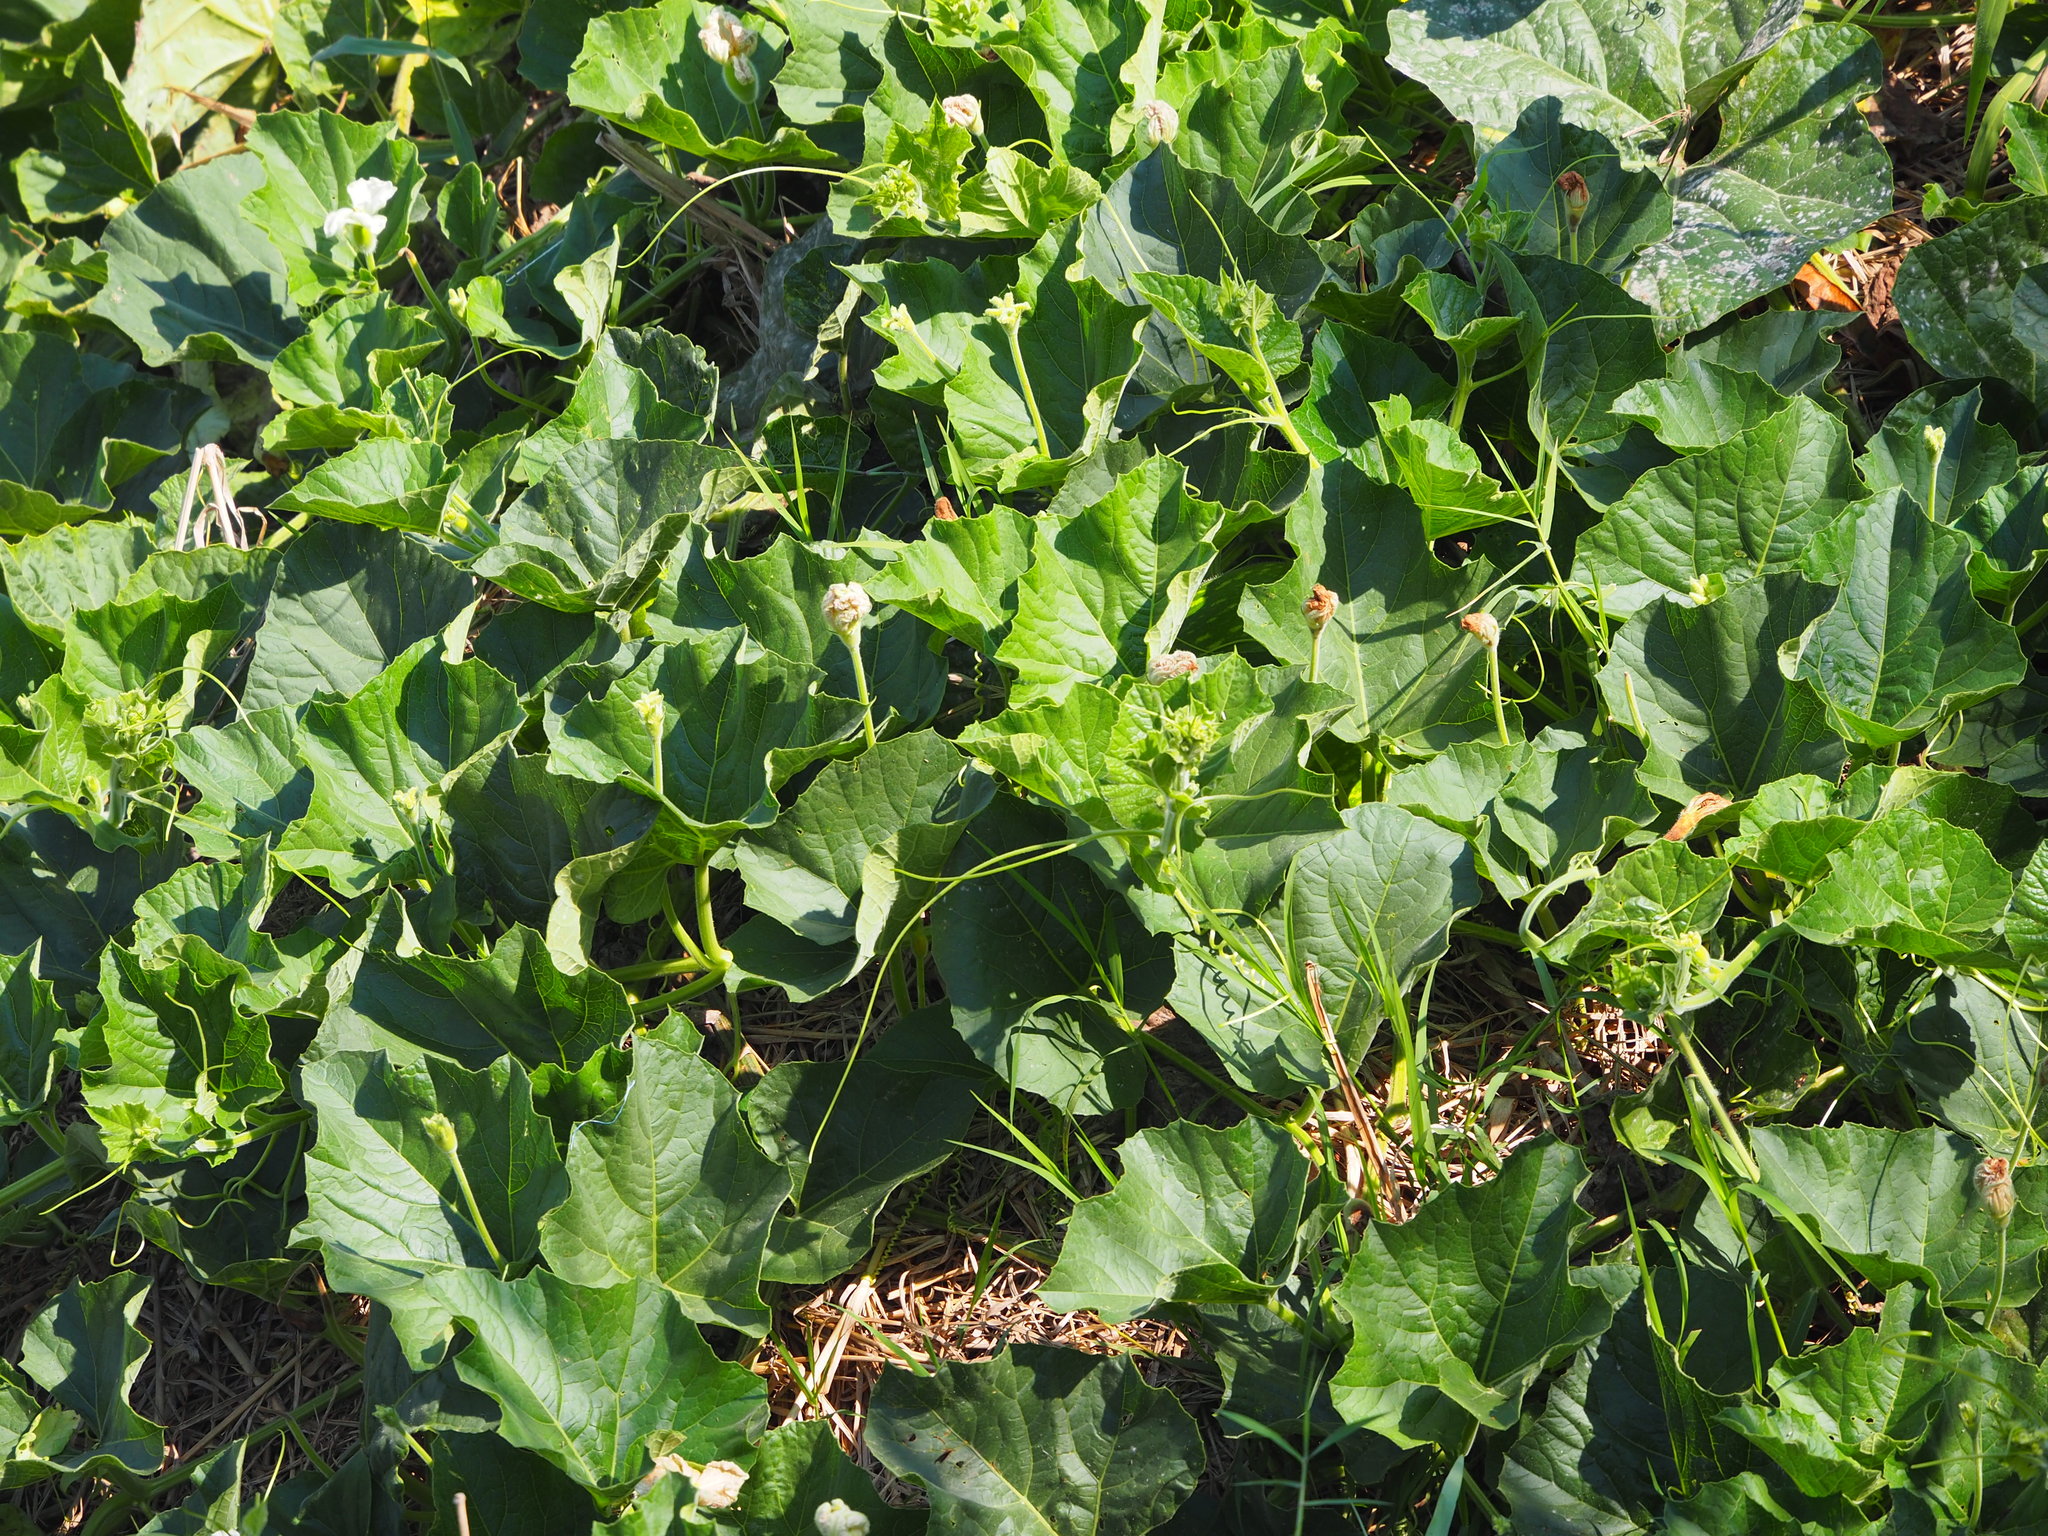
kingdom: Plantae
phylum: Tracheophyta
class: Magnoliopsida
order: Cucurbitales
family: Cucurbitaceae
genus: Lagenaria
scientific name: Lagenaria siceraria
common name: Bottle gourd
